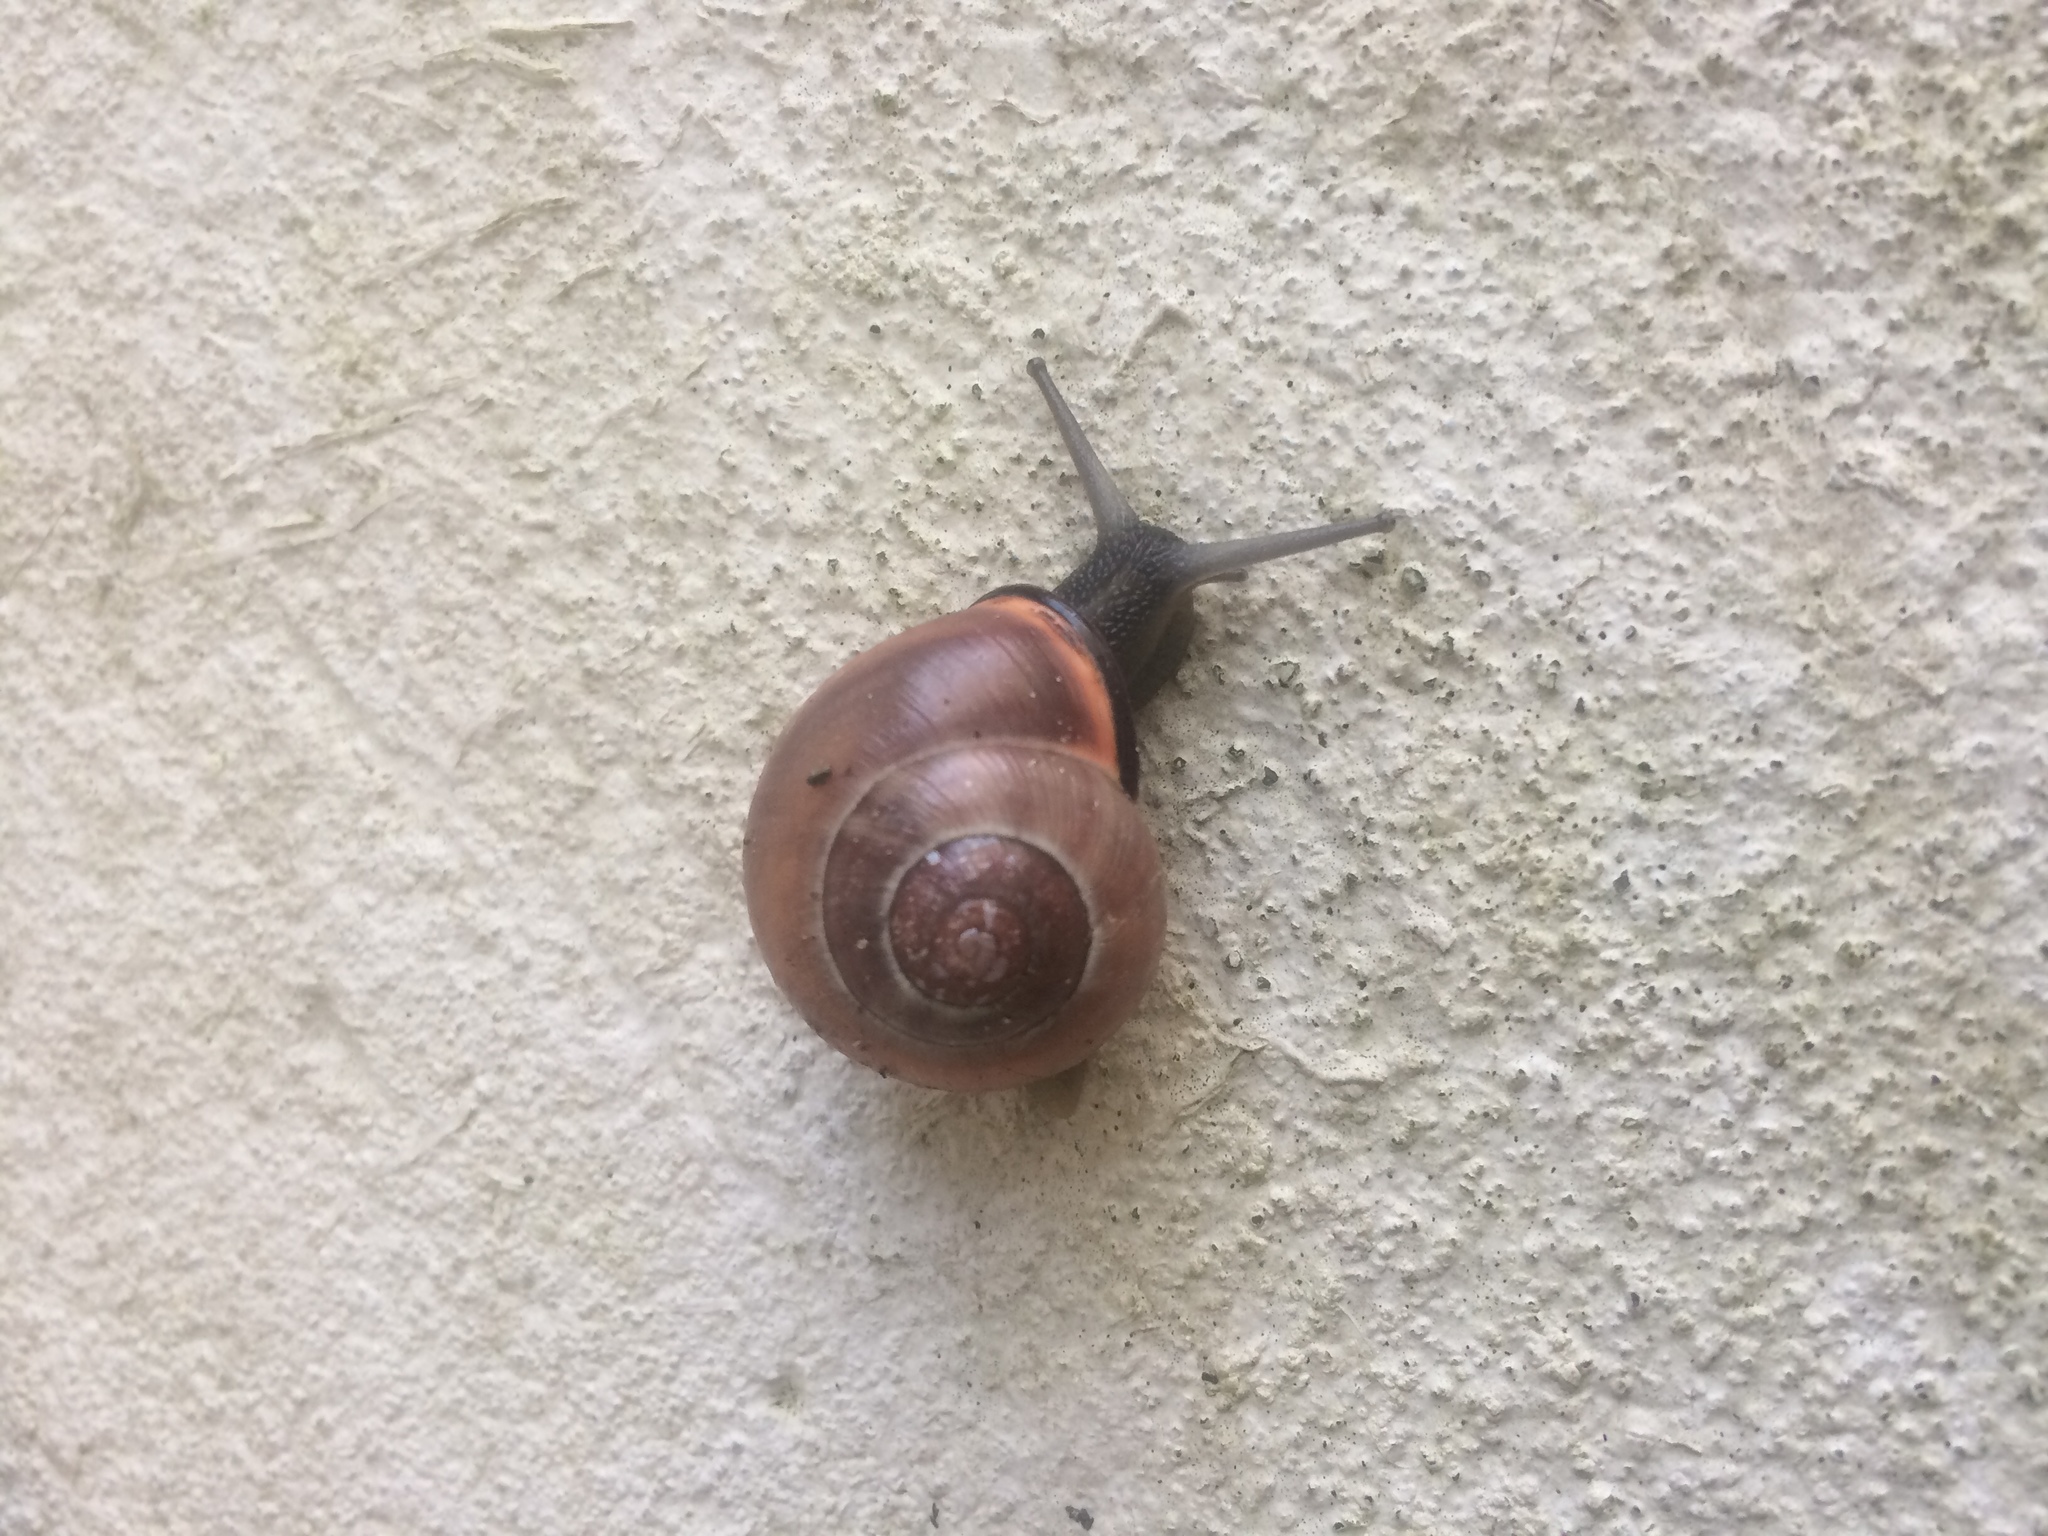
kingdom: Animalia
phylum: Mollusca
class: Gastropoda
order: Stylommatophora
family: Helicidae
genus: Cepaea
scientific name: Cepaea nemoralis
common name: Grovesnail
